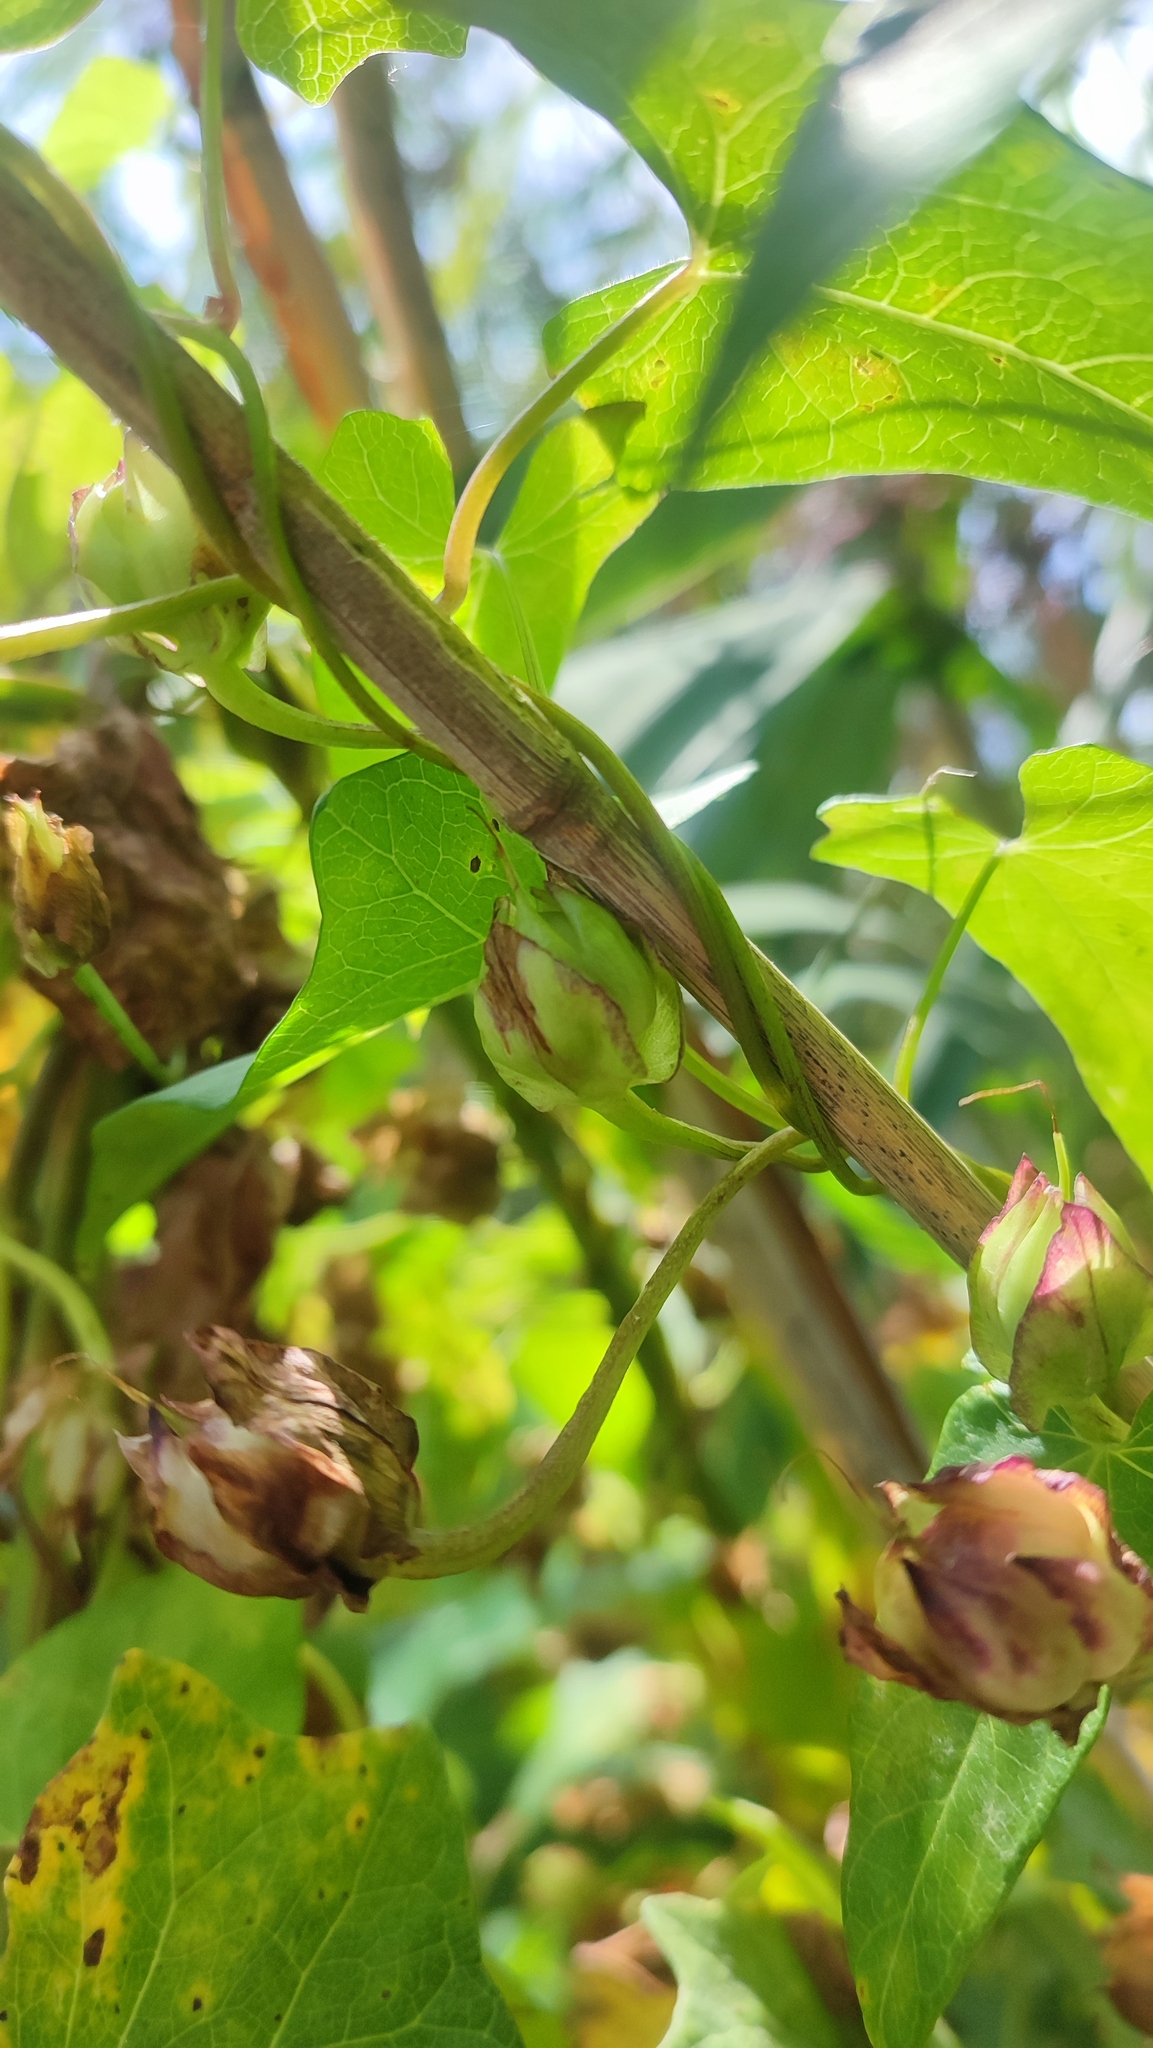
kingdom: Plantae
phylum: Tracheophyta
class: Magnoliopsida
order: Solanales
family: Convolvulaceae
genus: Calystegia
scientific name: Calystegia sepium
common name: Hedge bindweed
